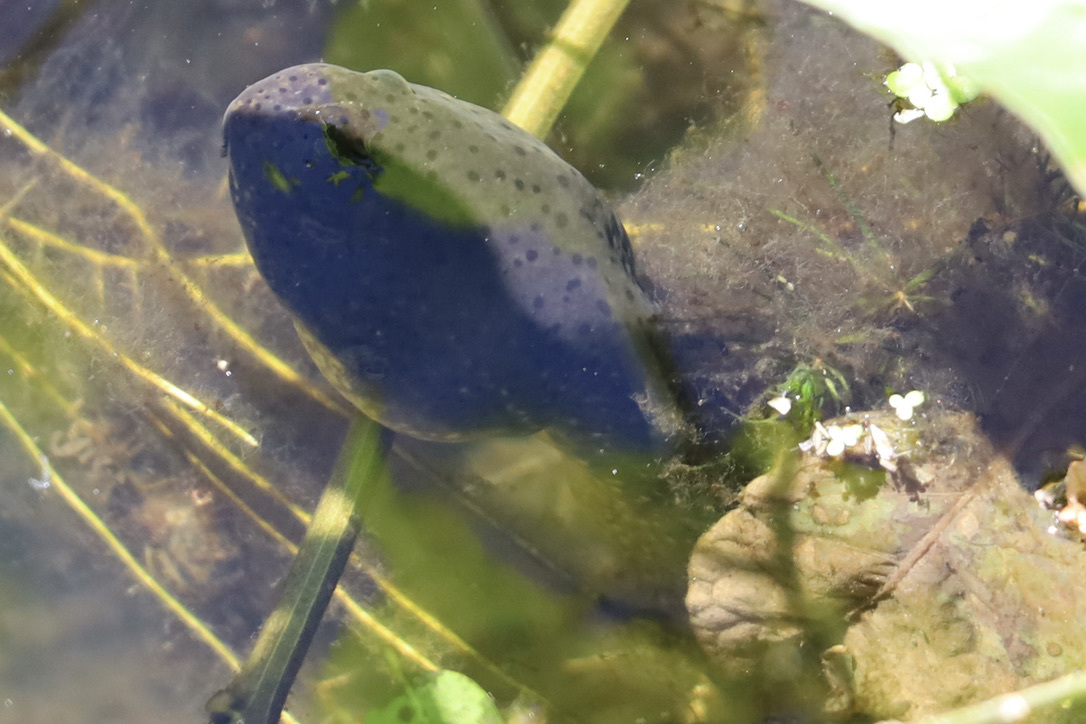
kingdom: Animalia
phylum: Chordata
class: Amphibia
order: Anura
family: Ranidae
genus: Lithobates
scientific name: Lithobates catesbeianus
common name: American bullfrog
